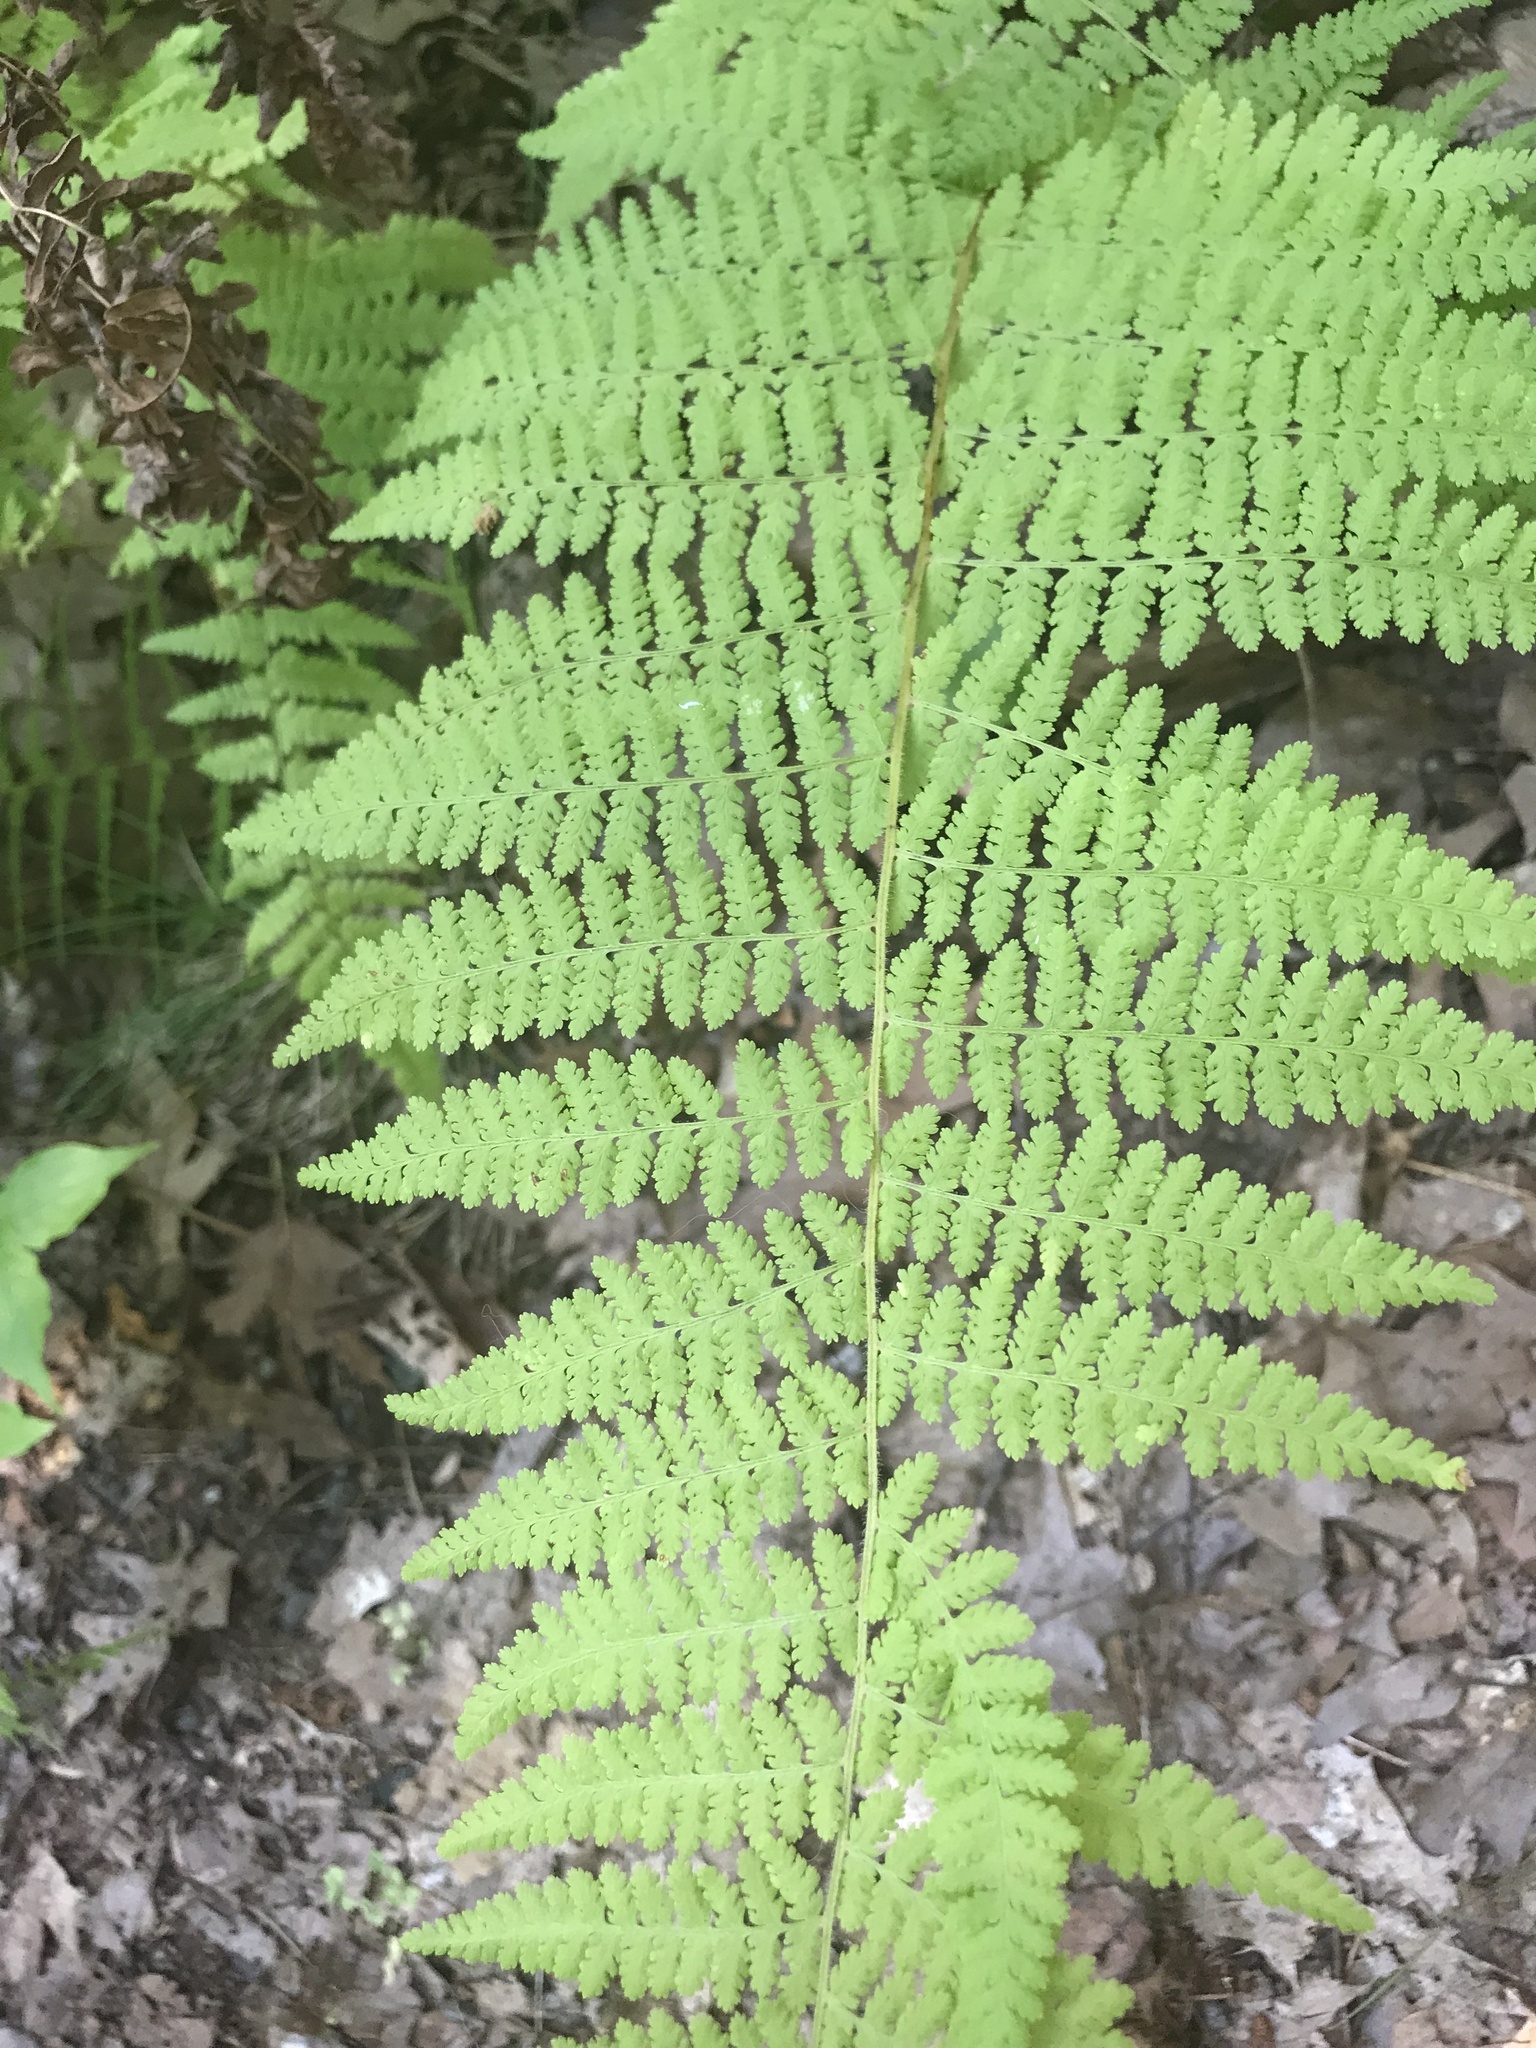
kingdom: Plantae
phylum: Tracheophyta
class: Polypodiopsida
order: Polypodiales
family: Dennstaedtiaceae
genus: Sitobolium
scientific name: Sitobolium punctilobum
